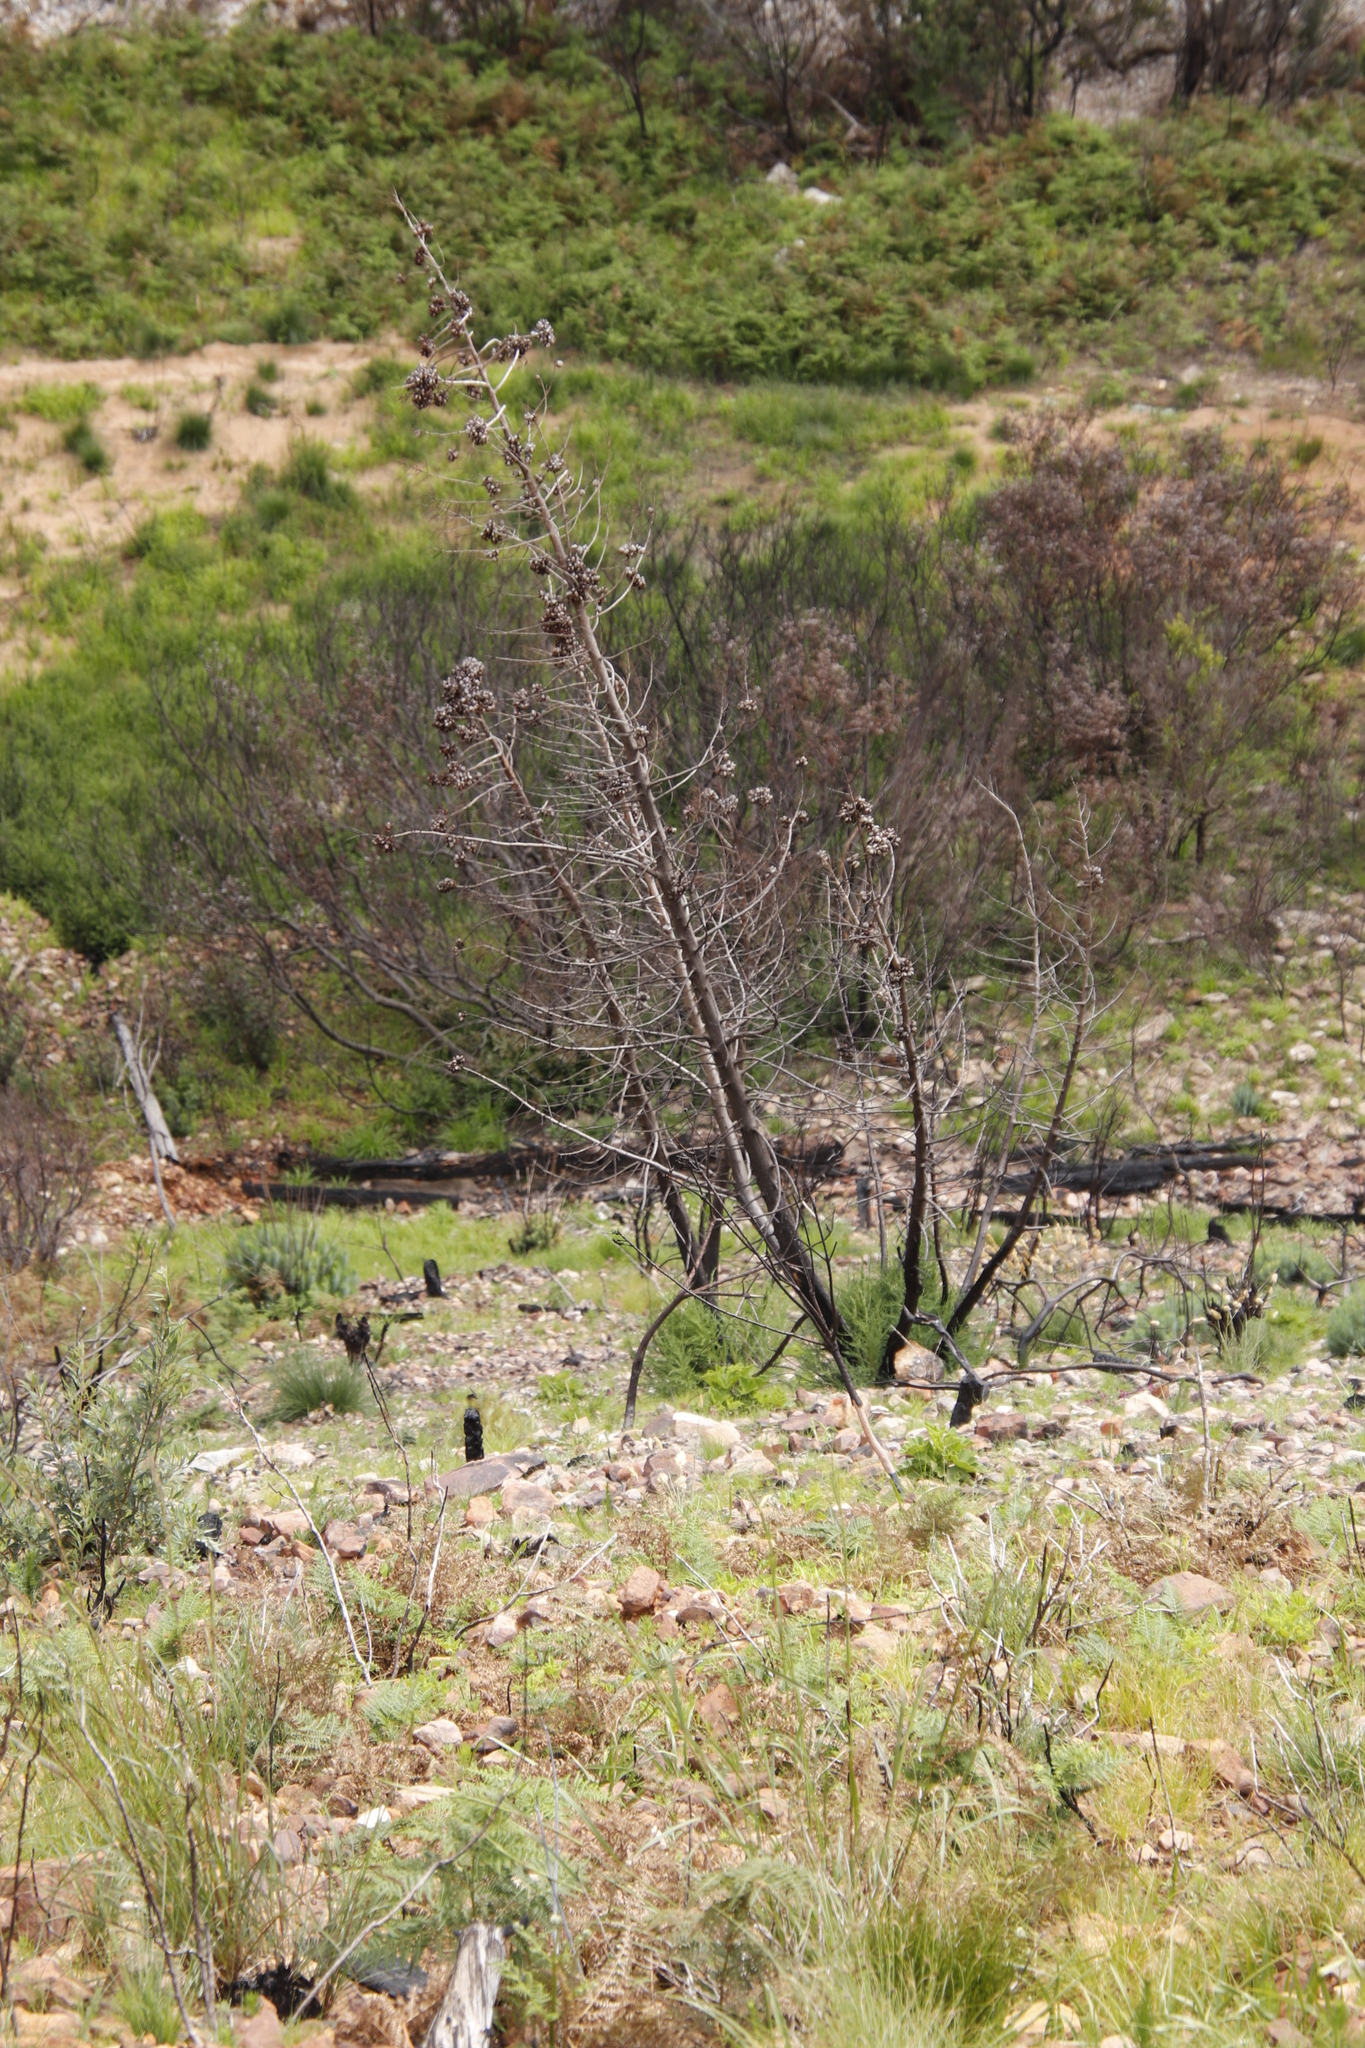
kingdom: Plantae
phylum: Tracheophyta
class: Pinopsida
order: Pinales
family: Cupressaceae
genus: Widdringtonia
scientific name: Widdringtonia nodiflora
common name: Cape cypress
